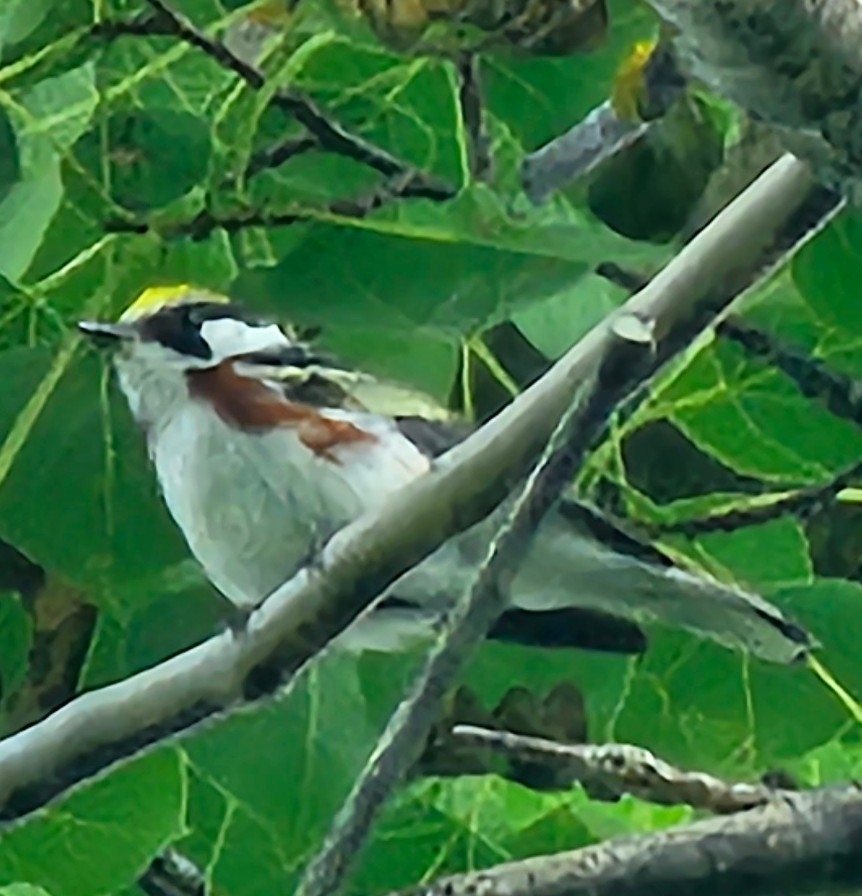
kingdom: Animalia
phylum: Chordata
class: Aves
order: Passeriformes
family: Parulidae
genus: Setophaga
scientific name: Setophaga pensylvanica
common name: Chestnut-sided warbler
